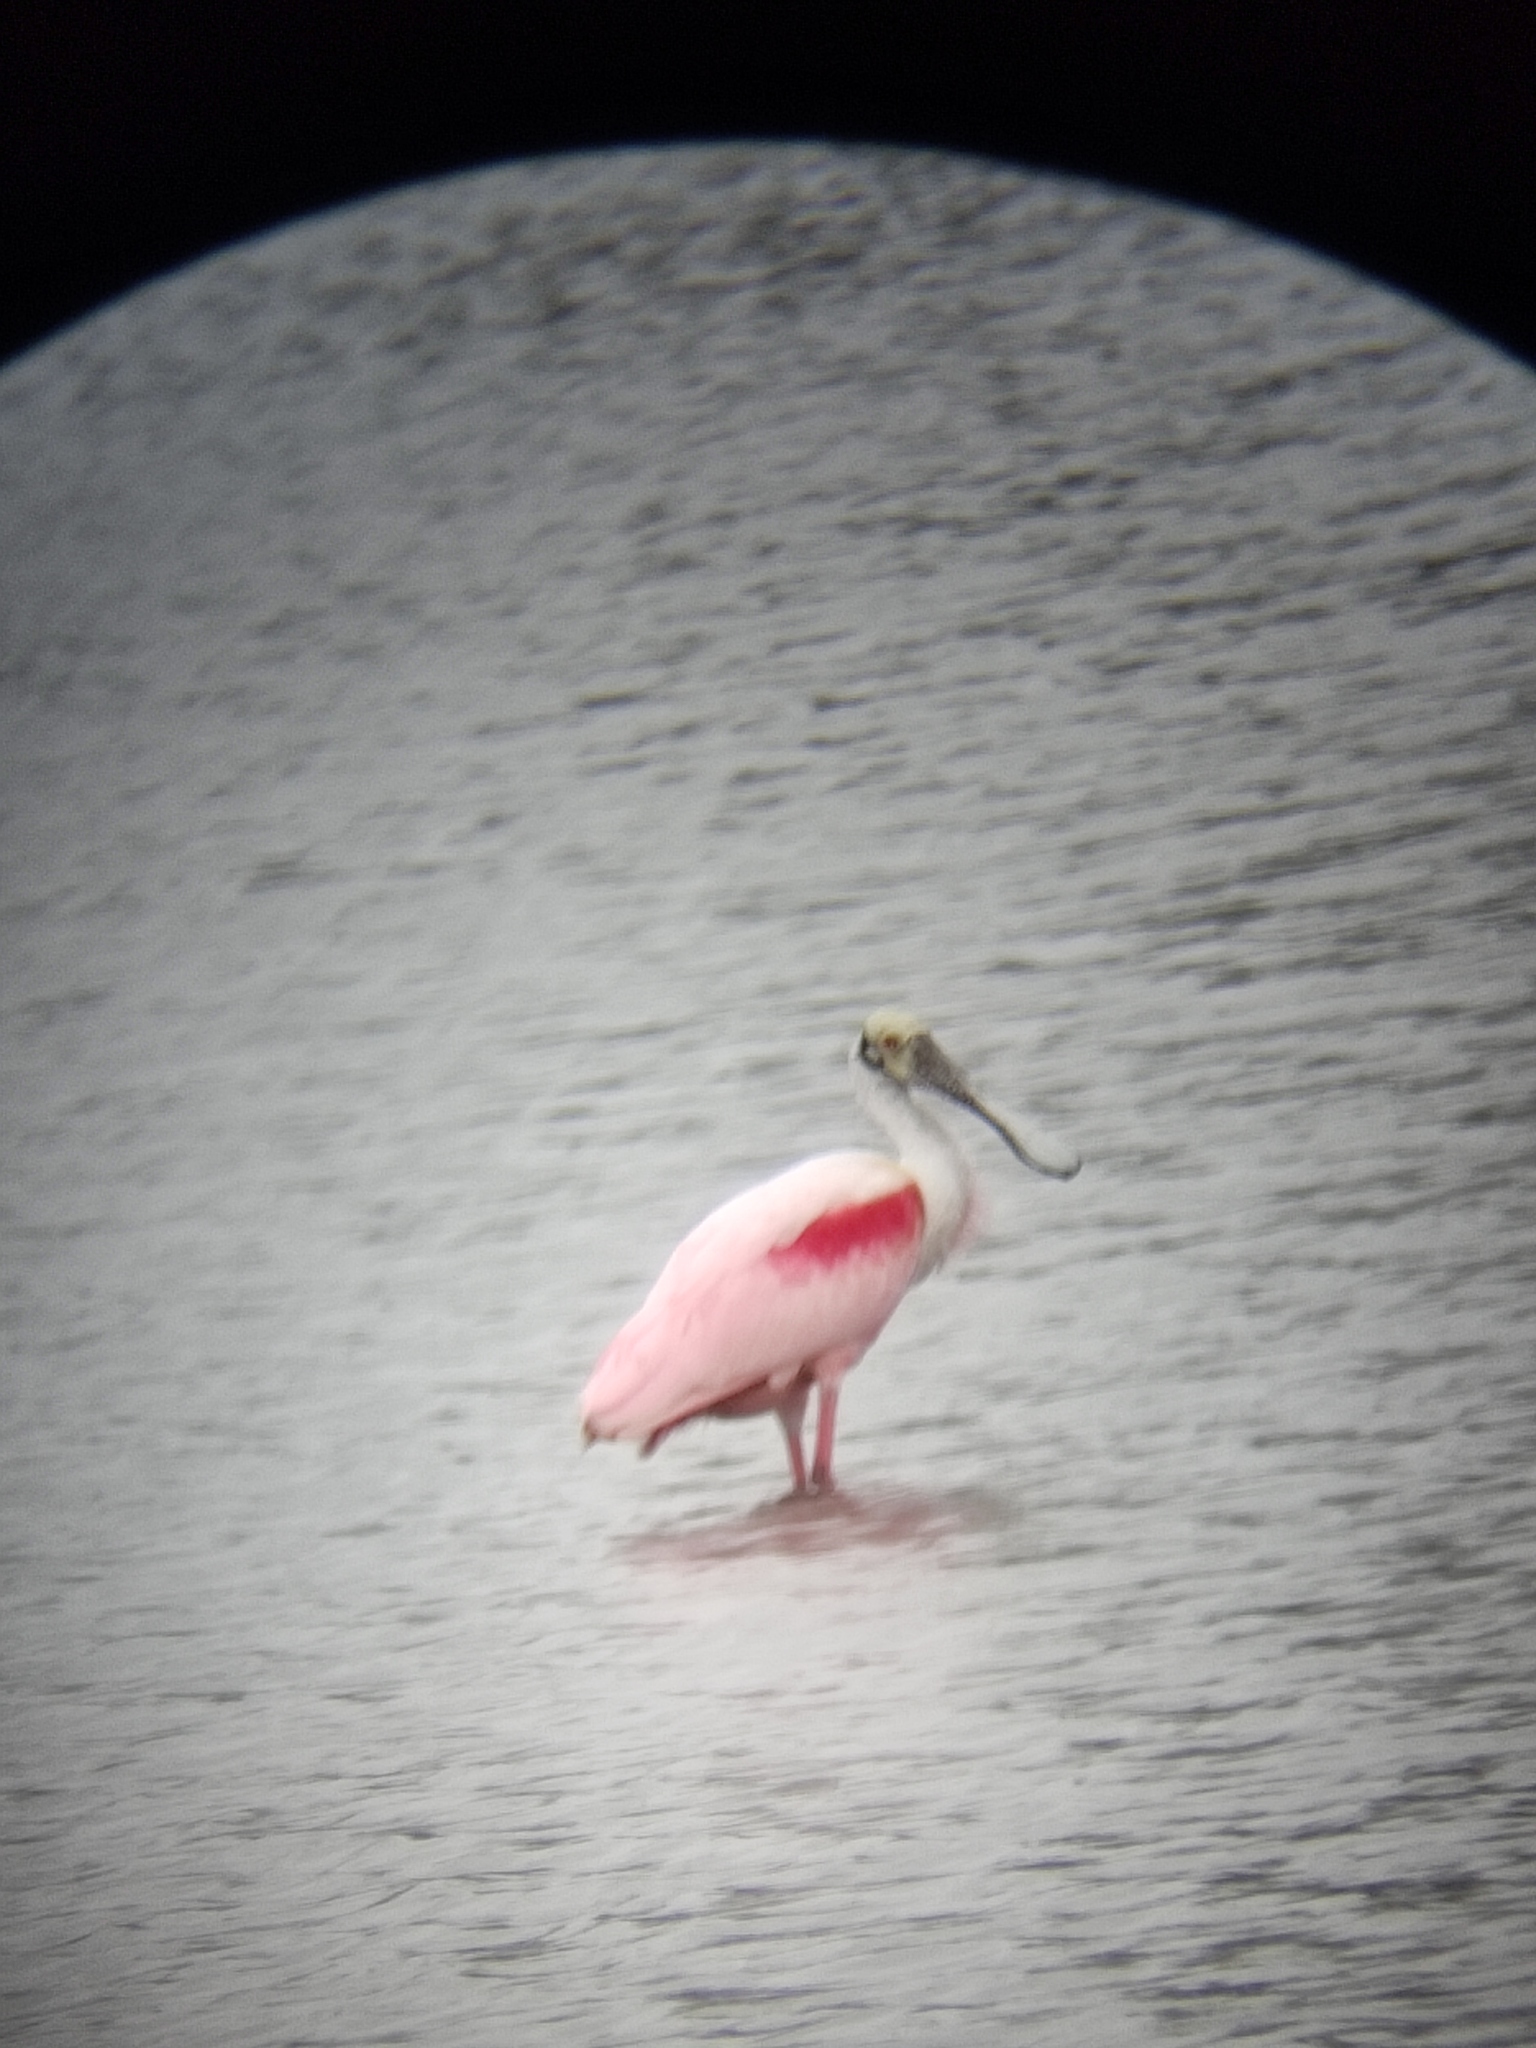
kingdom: Animalia
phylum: Chordata
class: Aves
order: Pelecaniformes
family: Threskiornithidae
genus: Platalea
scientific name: Platalea ajaja
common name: Roseate spoonbill
